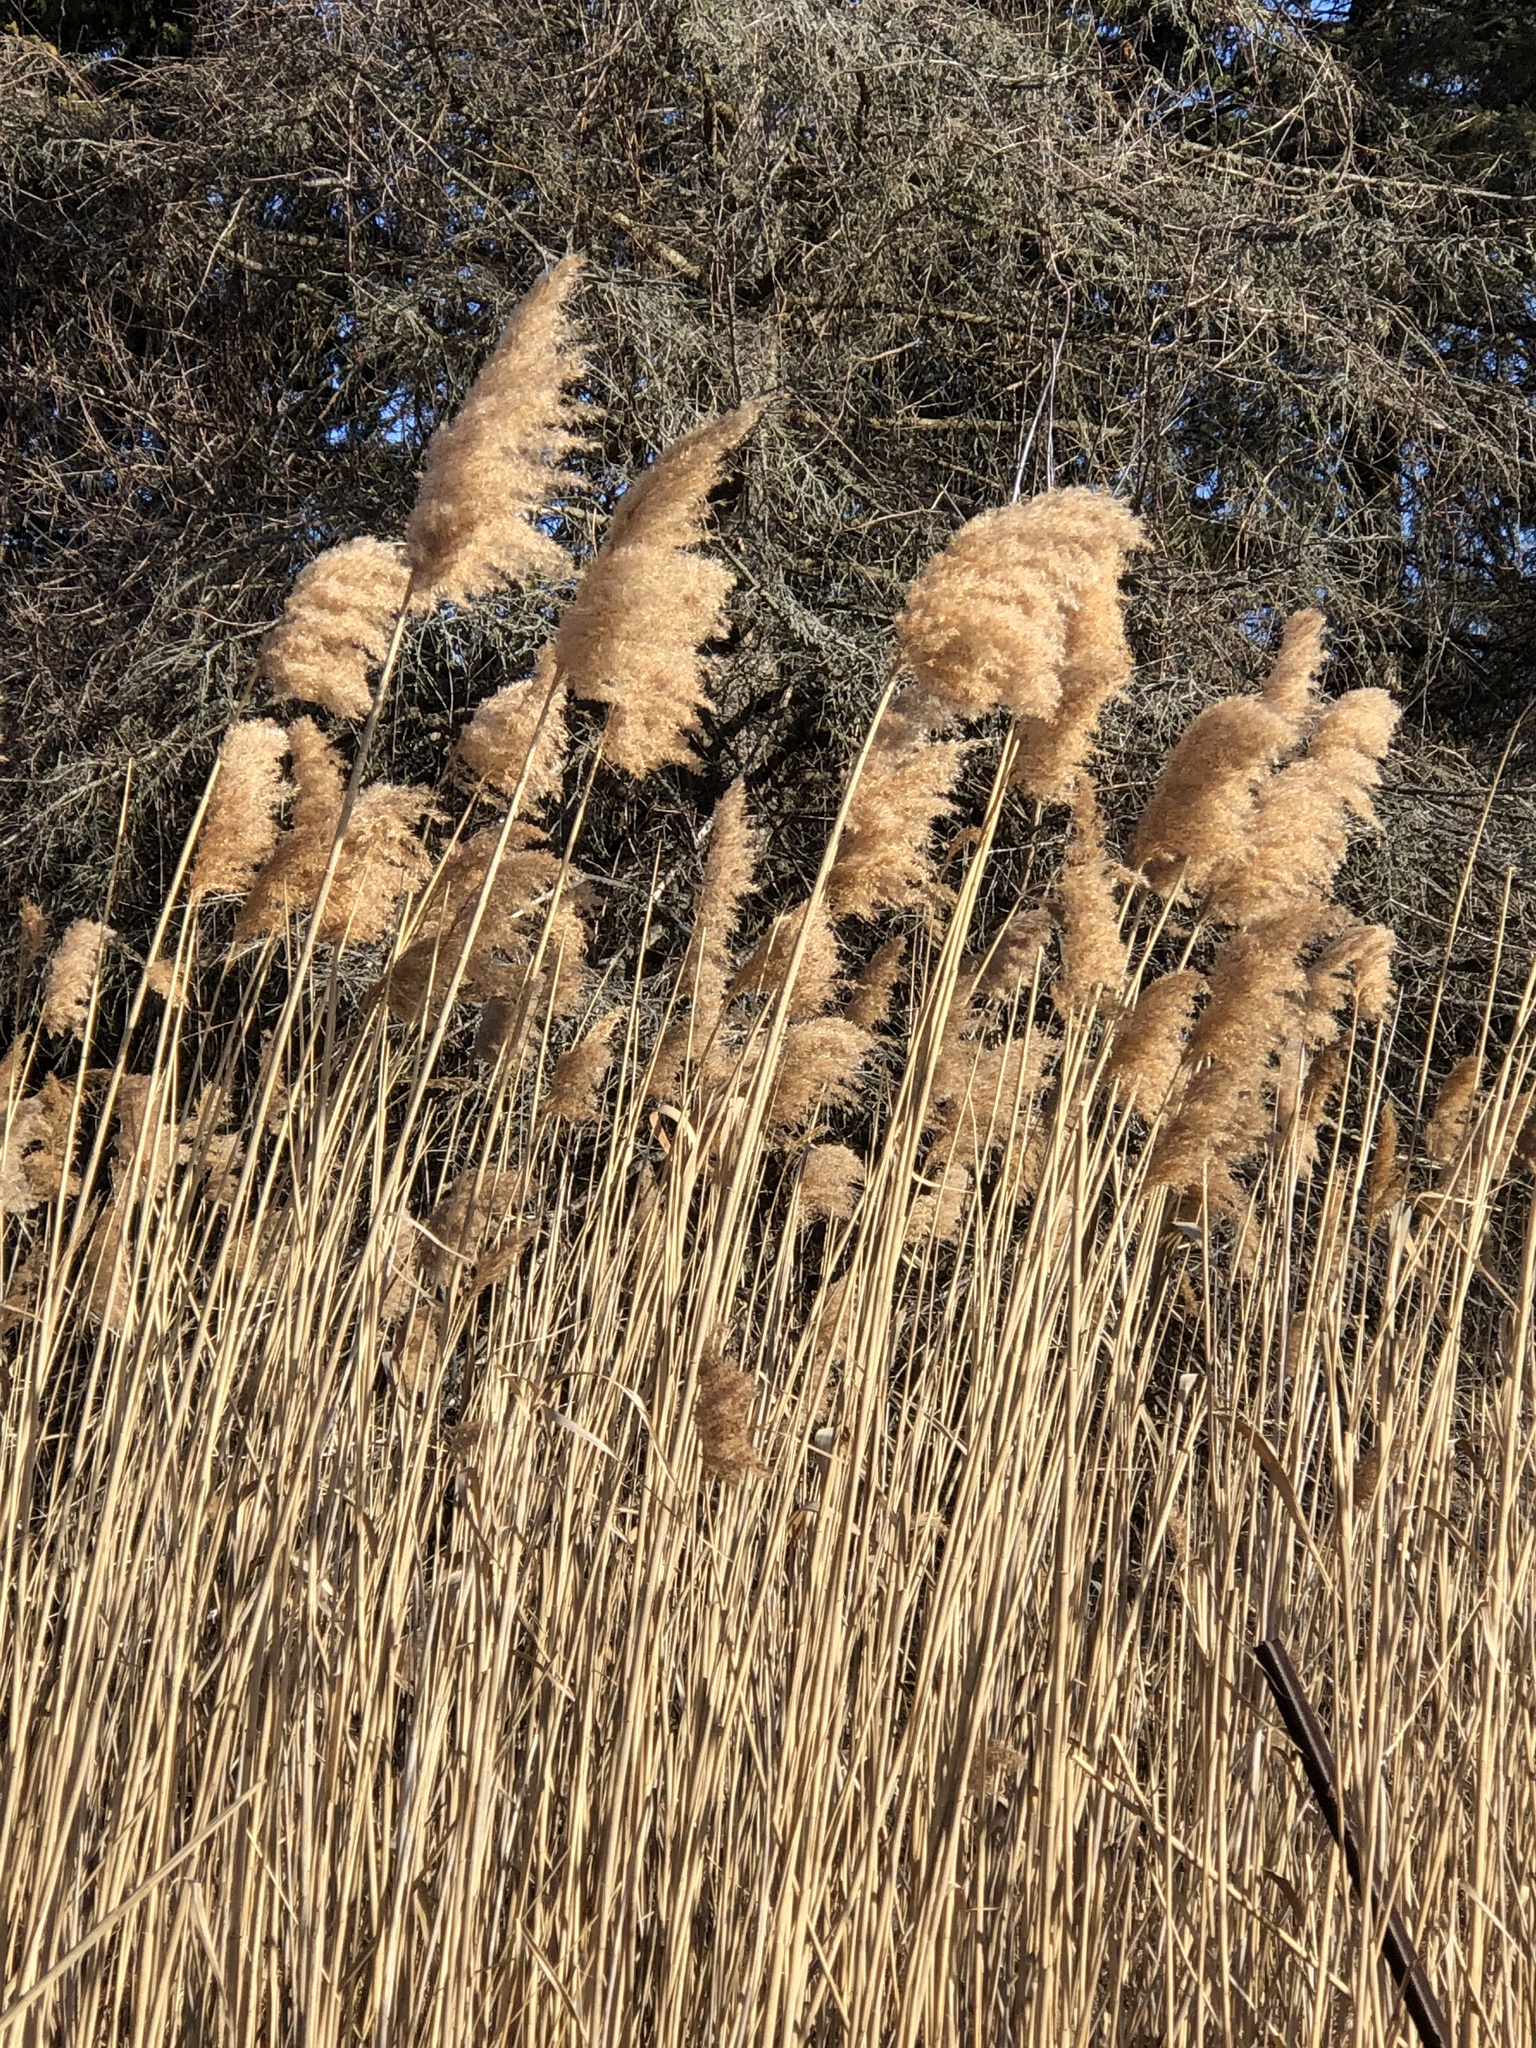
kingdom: Plantae
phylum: Tracheophyta
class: Liliopsida
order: Poales
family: Poaceae
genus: Phragmites
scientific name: Phragmites australis
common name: Common reed
